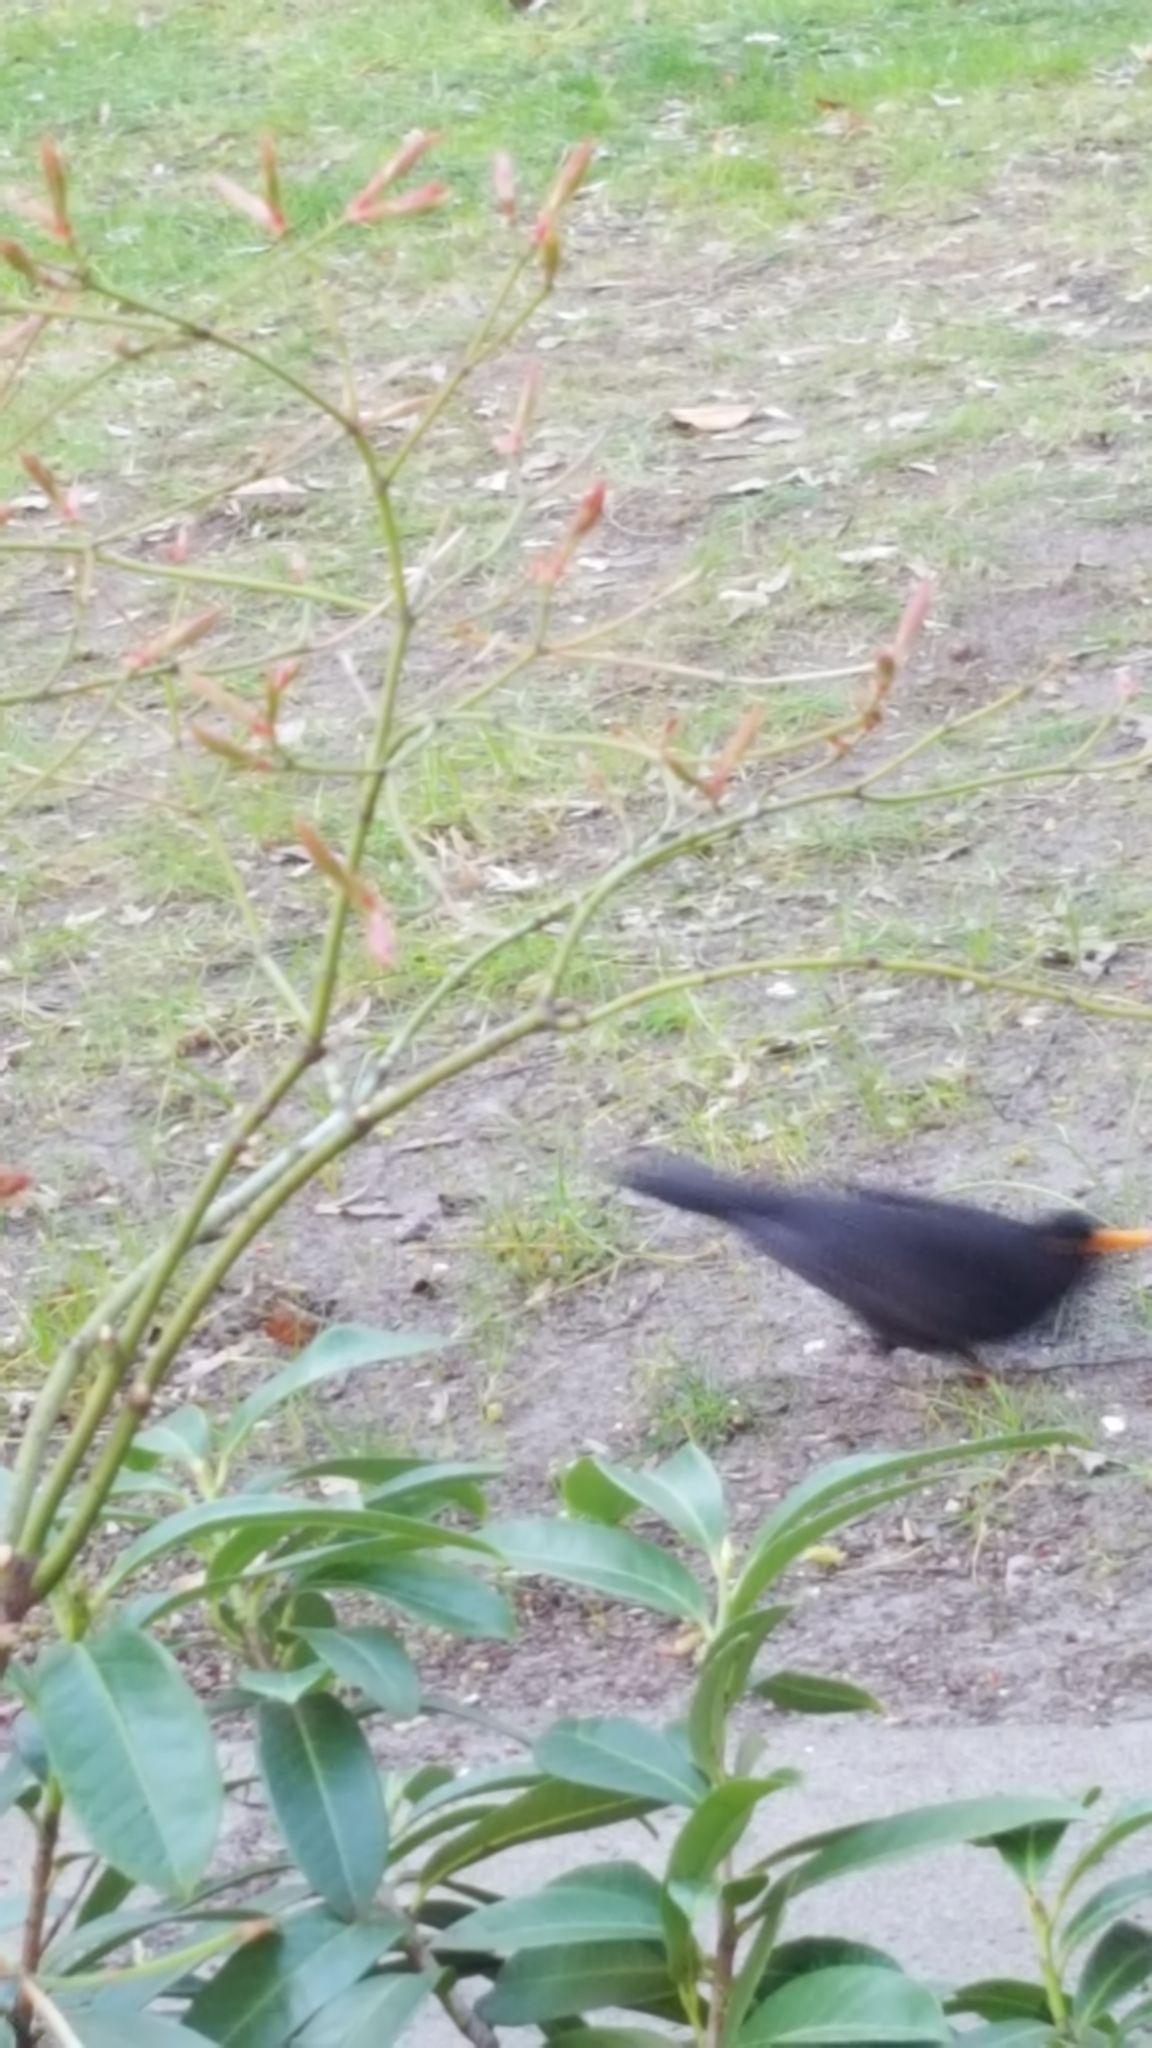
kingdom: Animalia
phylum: Chordata
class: Aves
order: Passeriformes
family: Turdidae
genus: Turdus
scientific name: Turdus merula
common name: Common blackbird
